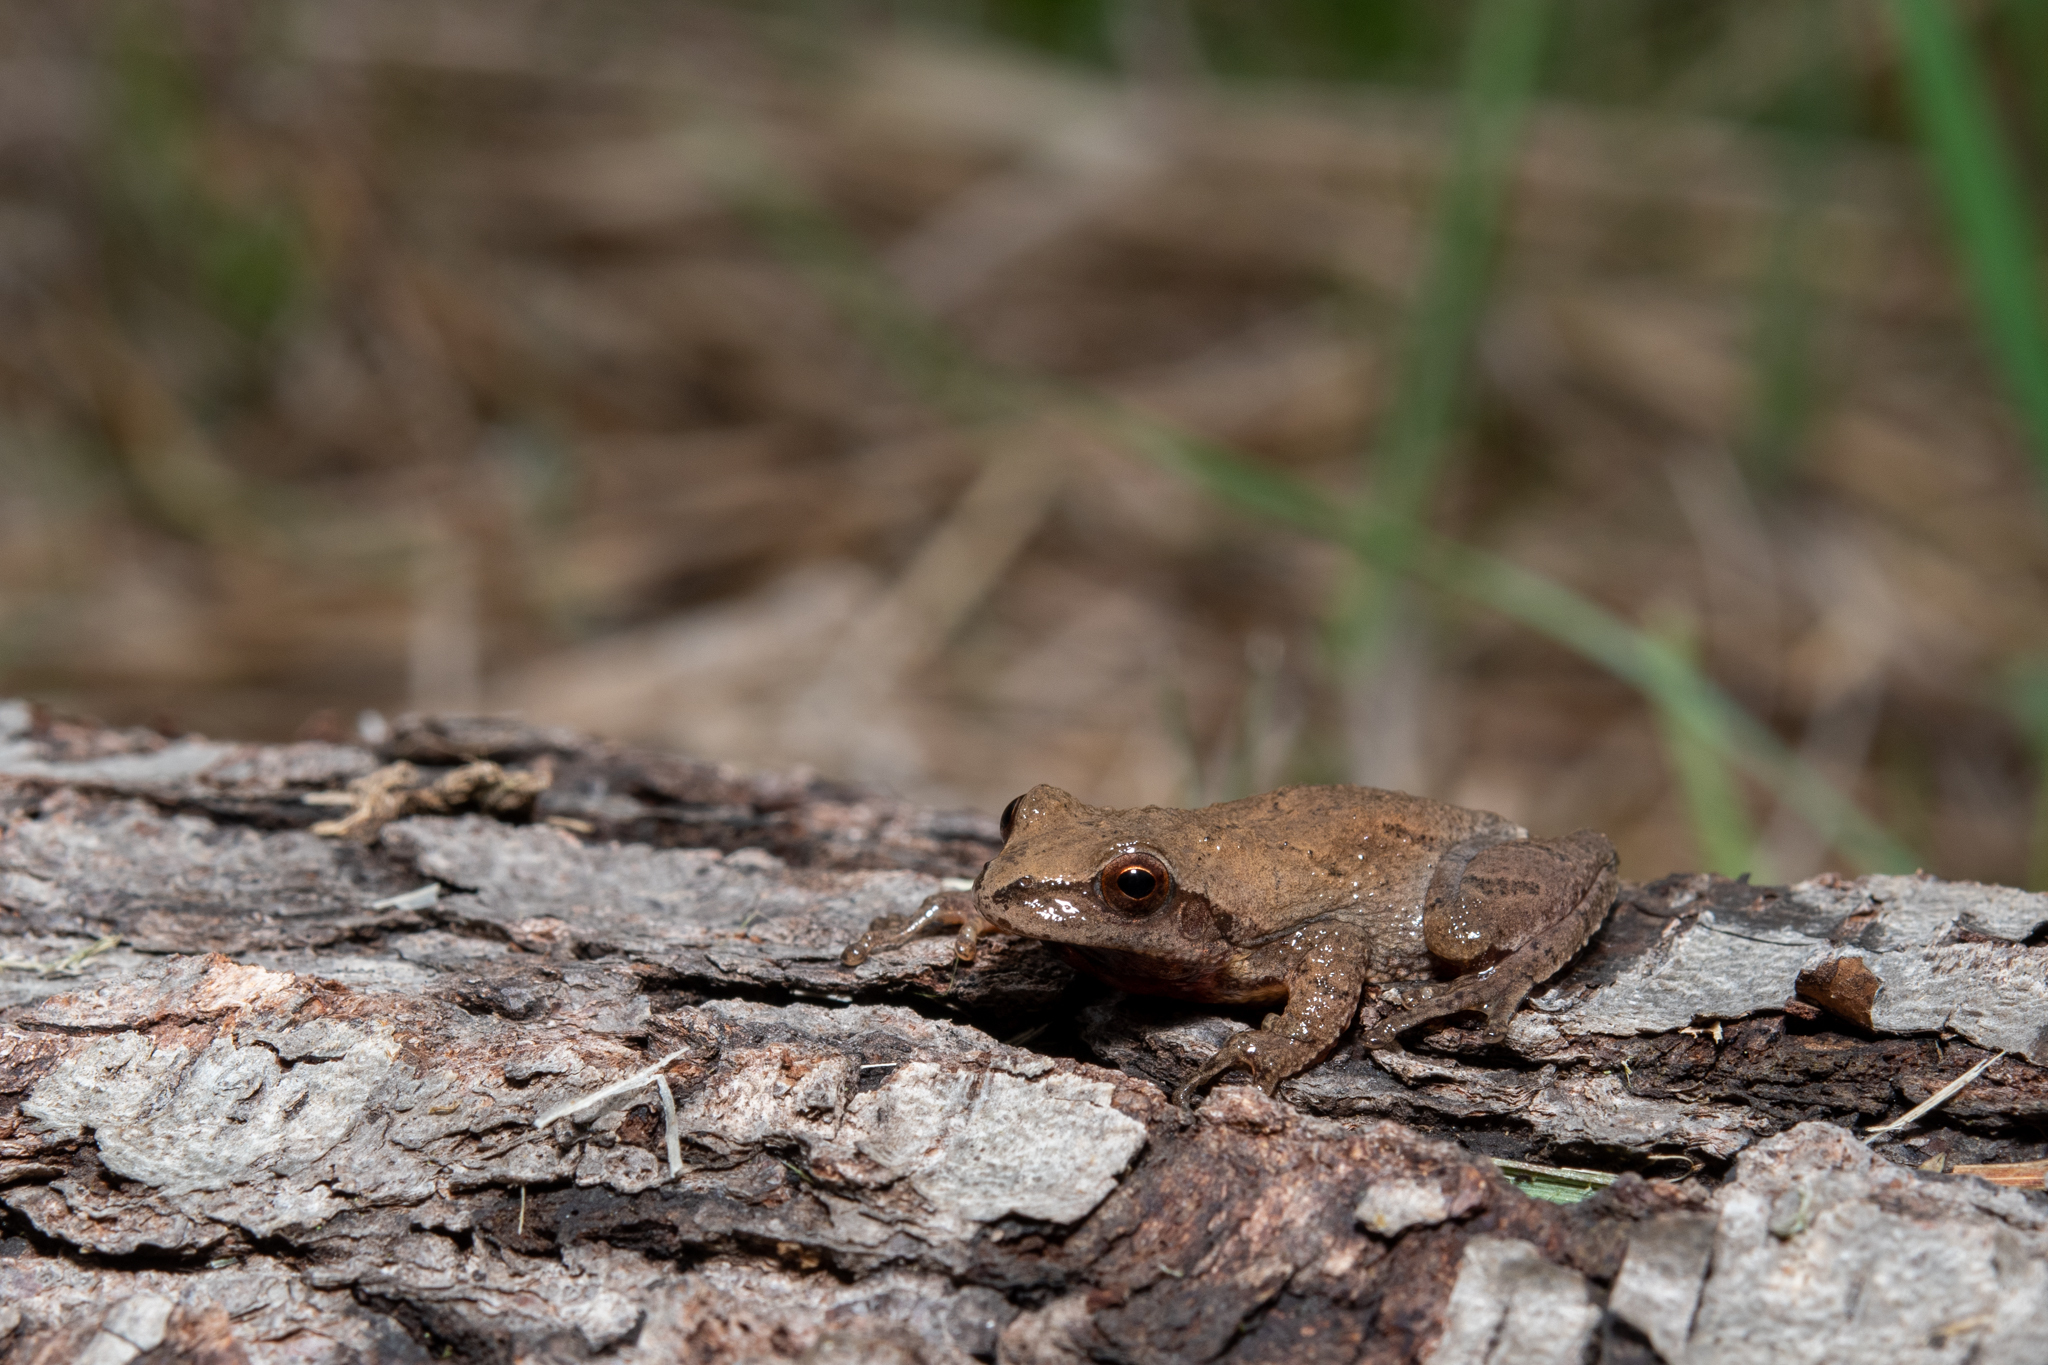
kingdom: Animalia
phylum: Chordata
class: Amphibia
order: Anura
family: Hylidae
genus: Pseudacris
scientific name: Pseudacris crucifer
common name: Spring peeper
